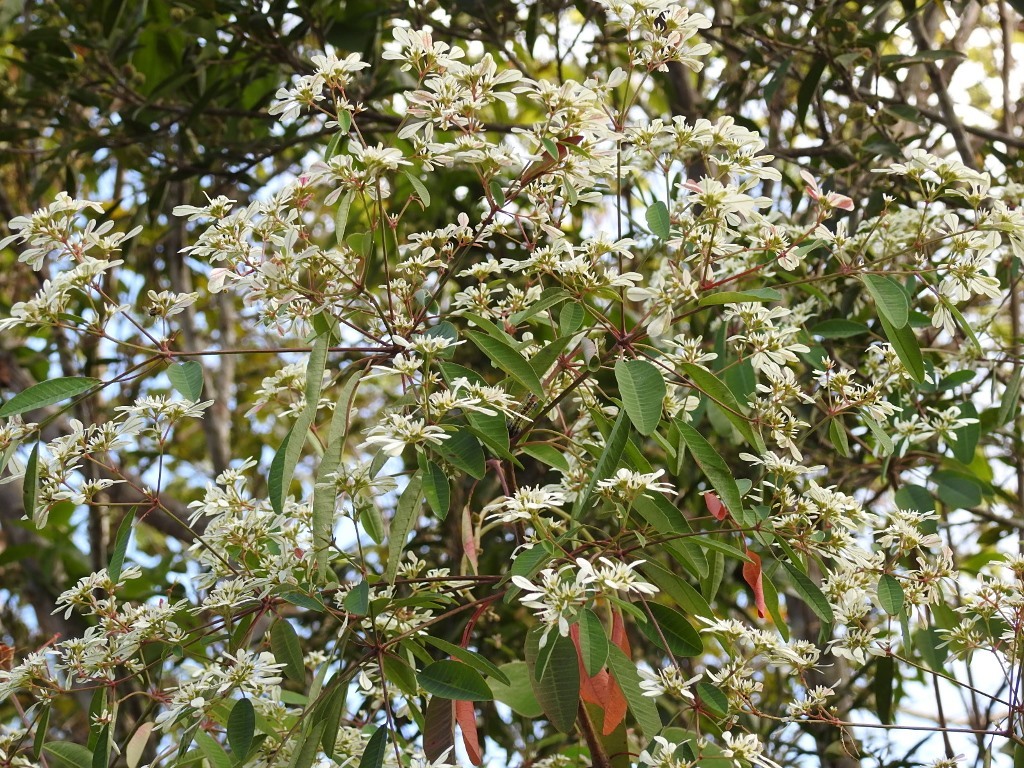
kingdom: Plantae
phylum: Tracheophyta
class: Magnoliopsida
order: Malpighiales
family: Euphorbiaceae
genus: Euphorbia
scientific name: Euphorbia leucocephala
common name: Pascuita
